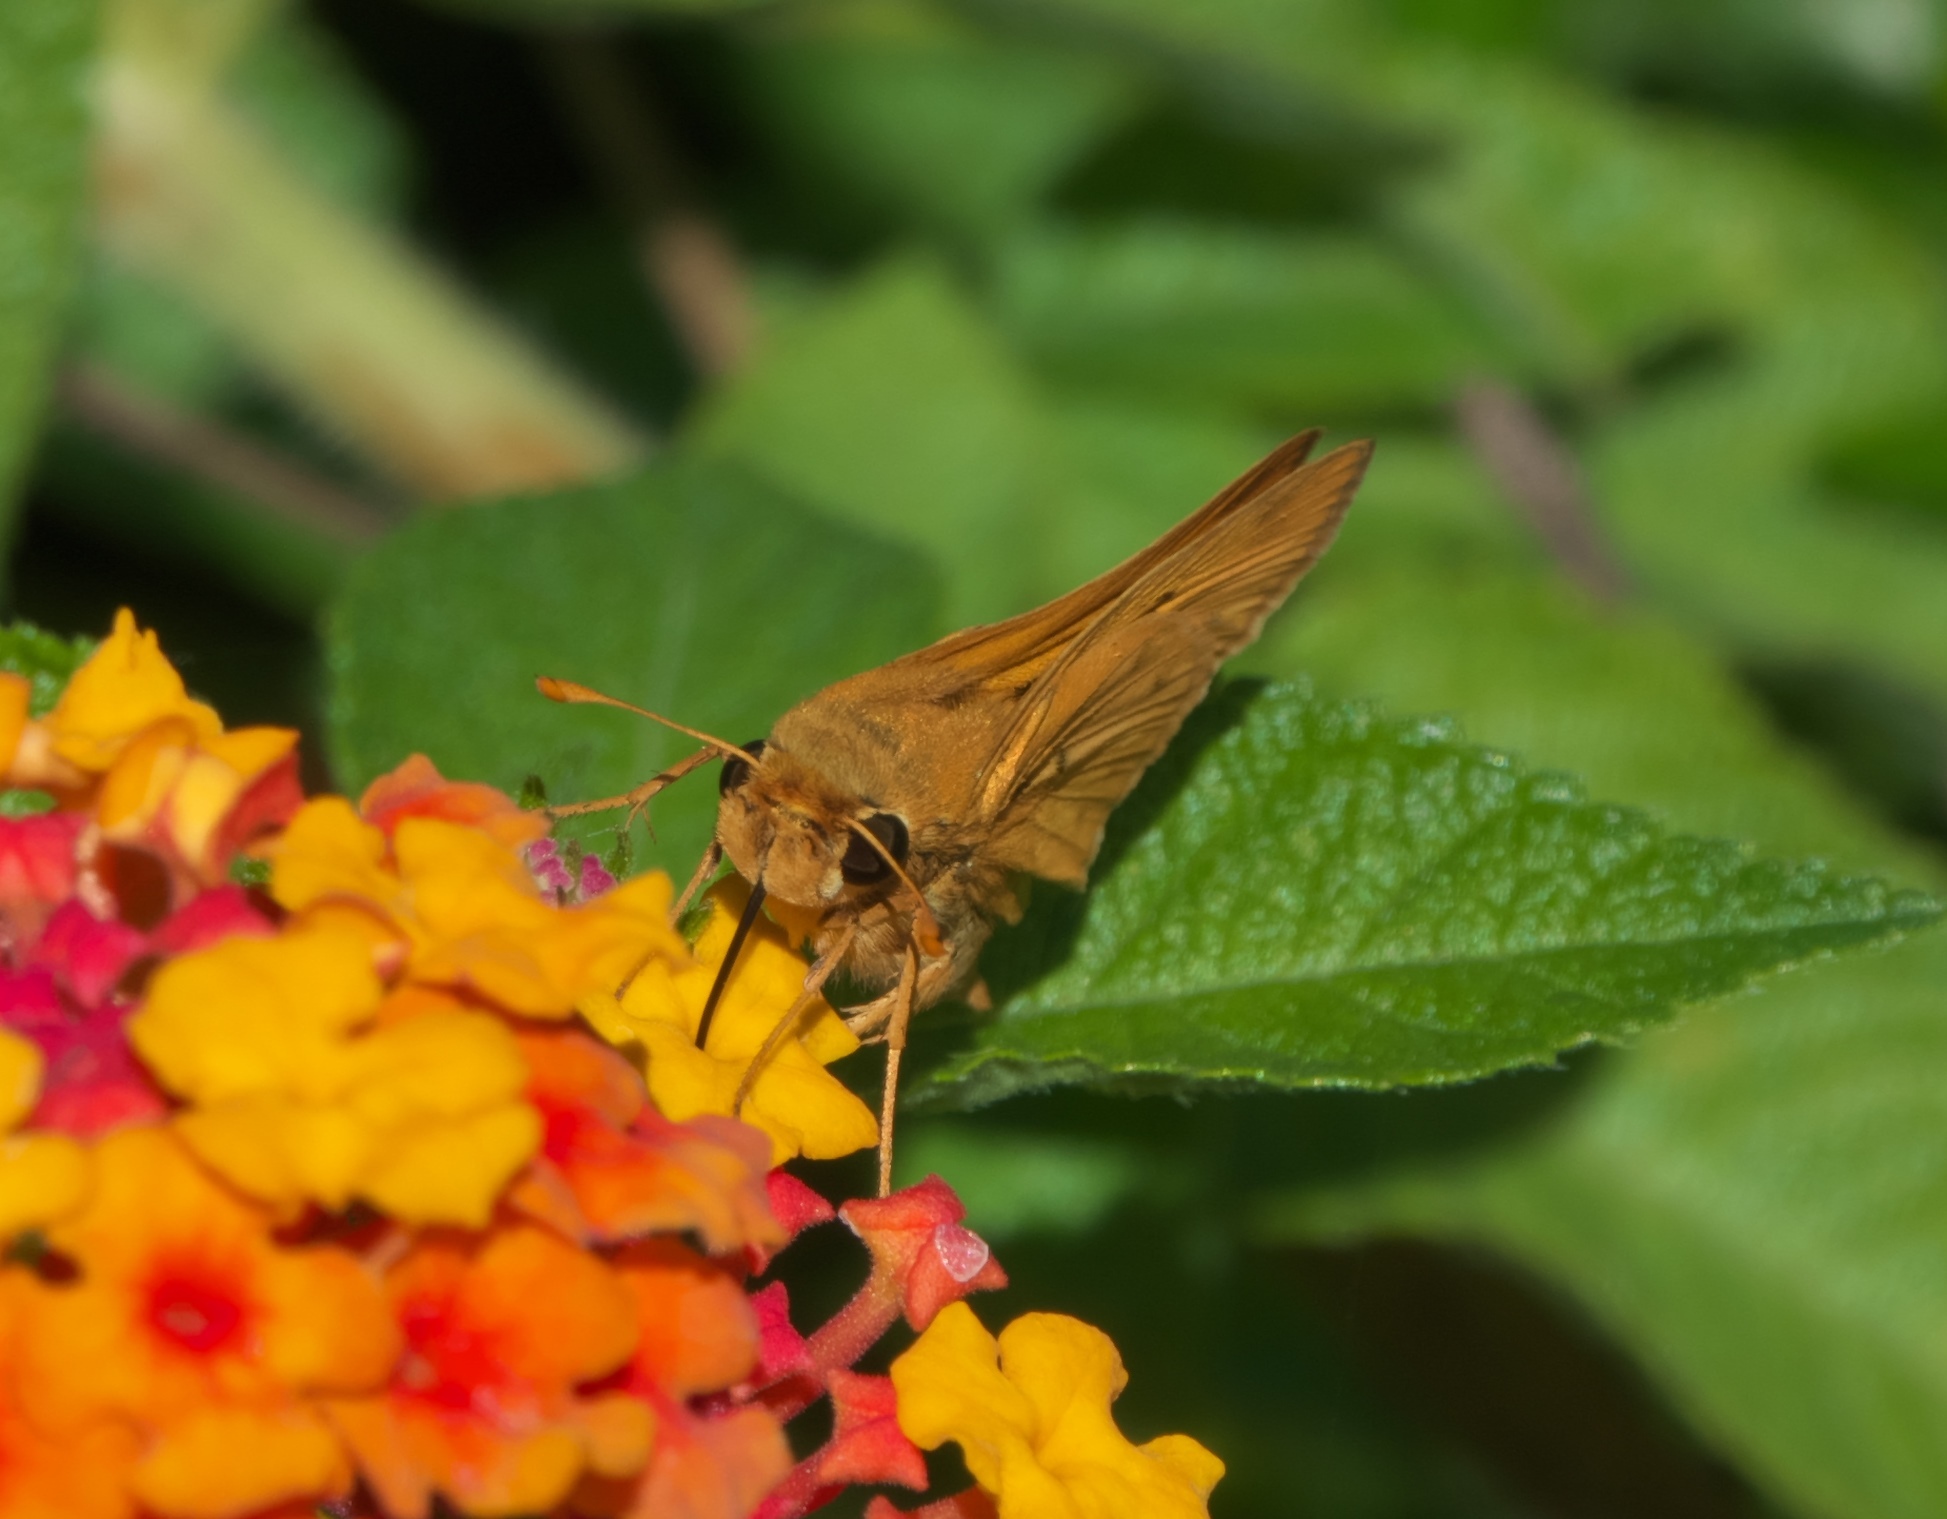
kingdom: Animalia
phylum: Arthropoda
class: Insecta
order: Lepidoptera
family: Hesperiidae
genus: Hylephila
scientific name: Hylephila phyleus
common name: Fiery skipper
